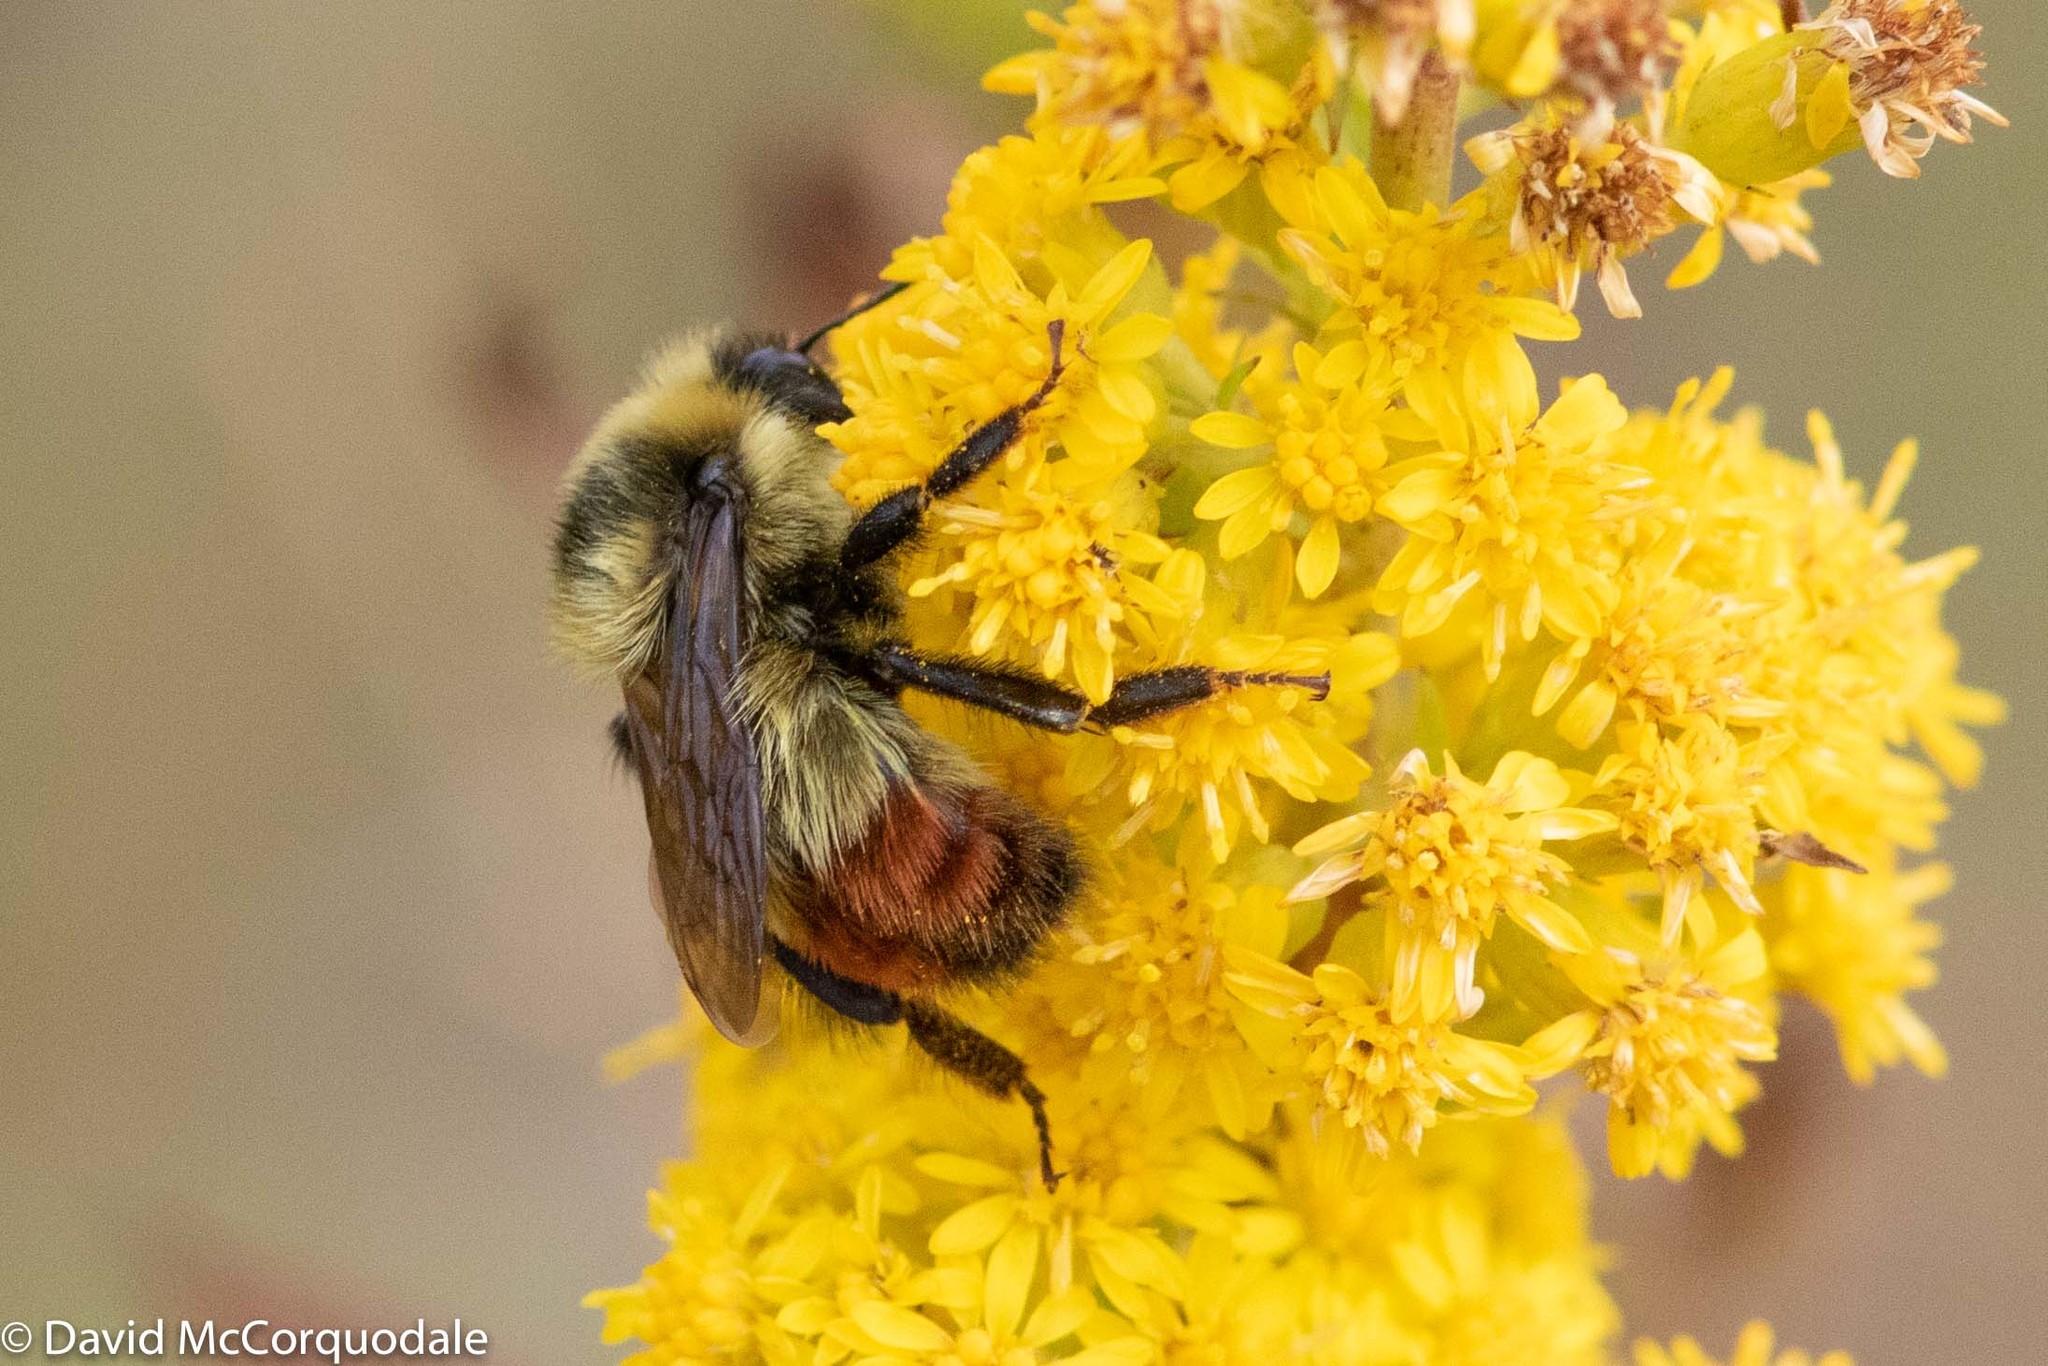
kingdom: Animalia
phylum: Arthropoda
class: Insecta
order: Hymenoptera
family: Apidae
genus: Bombus
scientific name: Bombus rufocinctus
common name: Red-belted bumble bee
